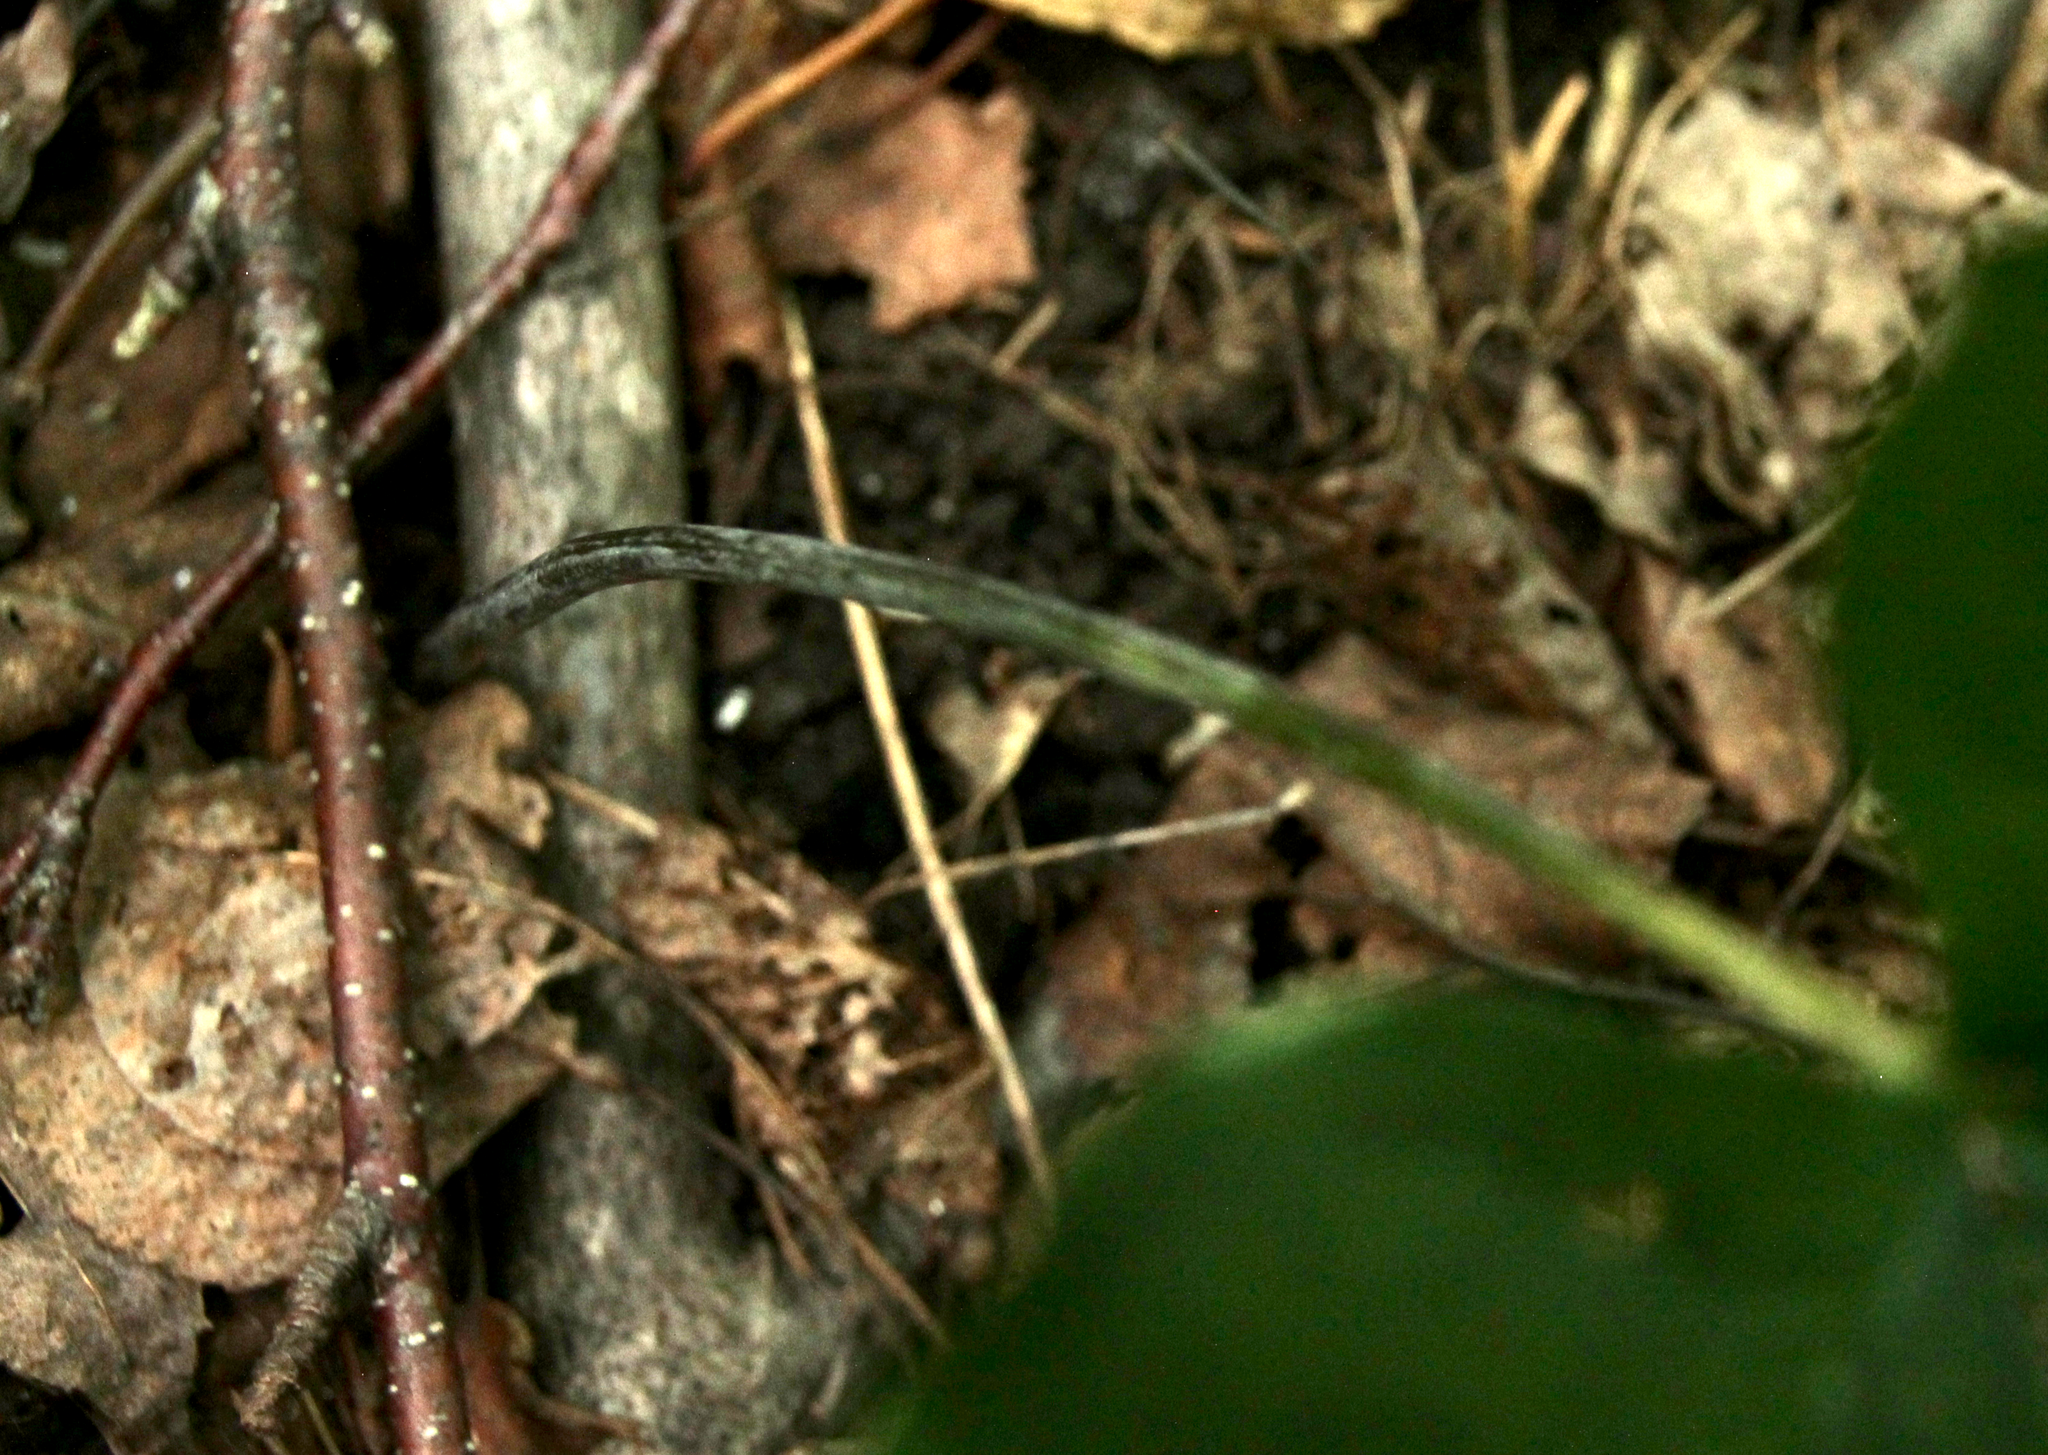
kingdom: Plantae
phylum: Tracheophyta
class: Liliopsida
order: Alismatales
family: Araceae
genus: Arisaema
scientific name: Arisaema triphyllum
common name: Jack-in-the-pulpit
